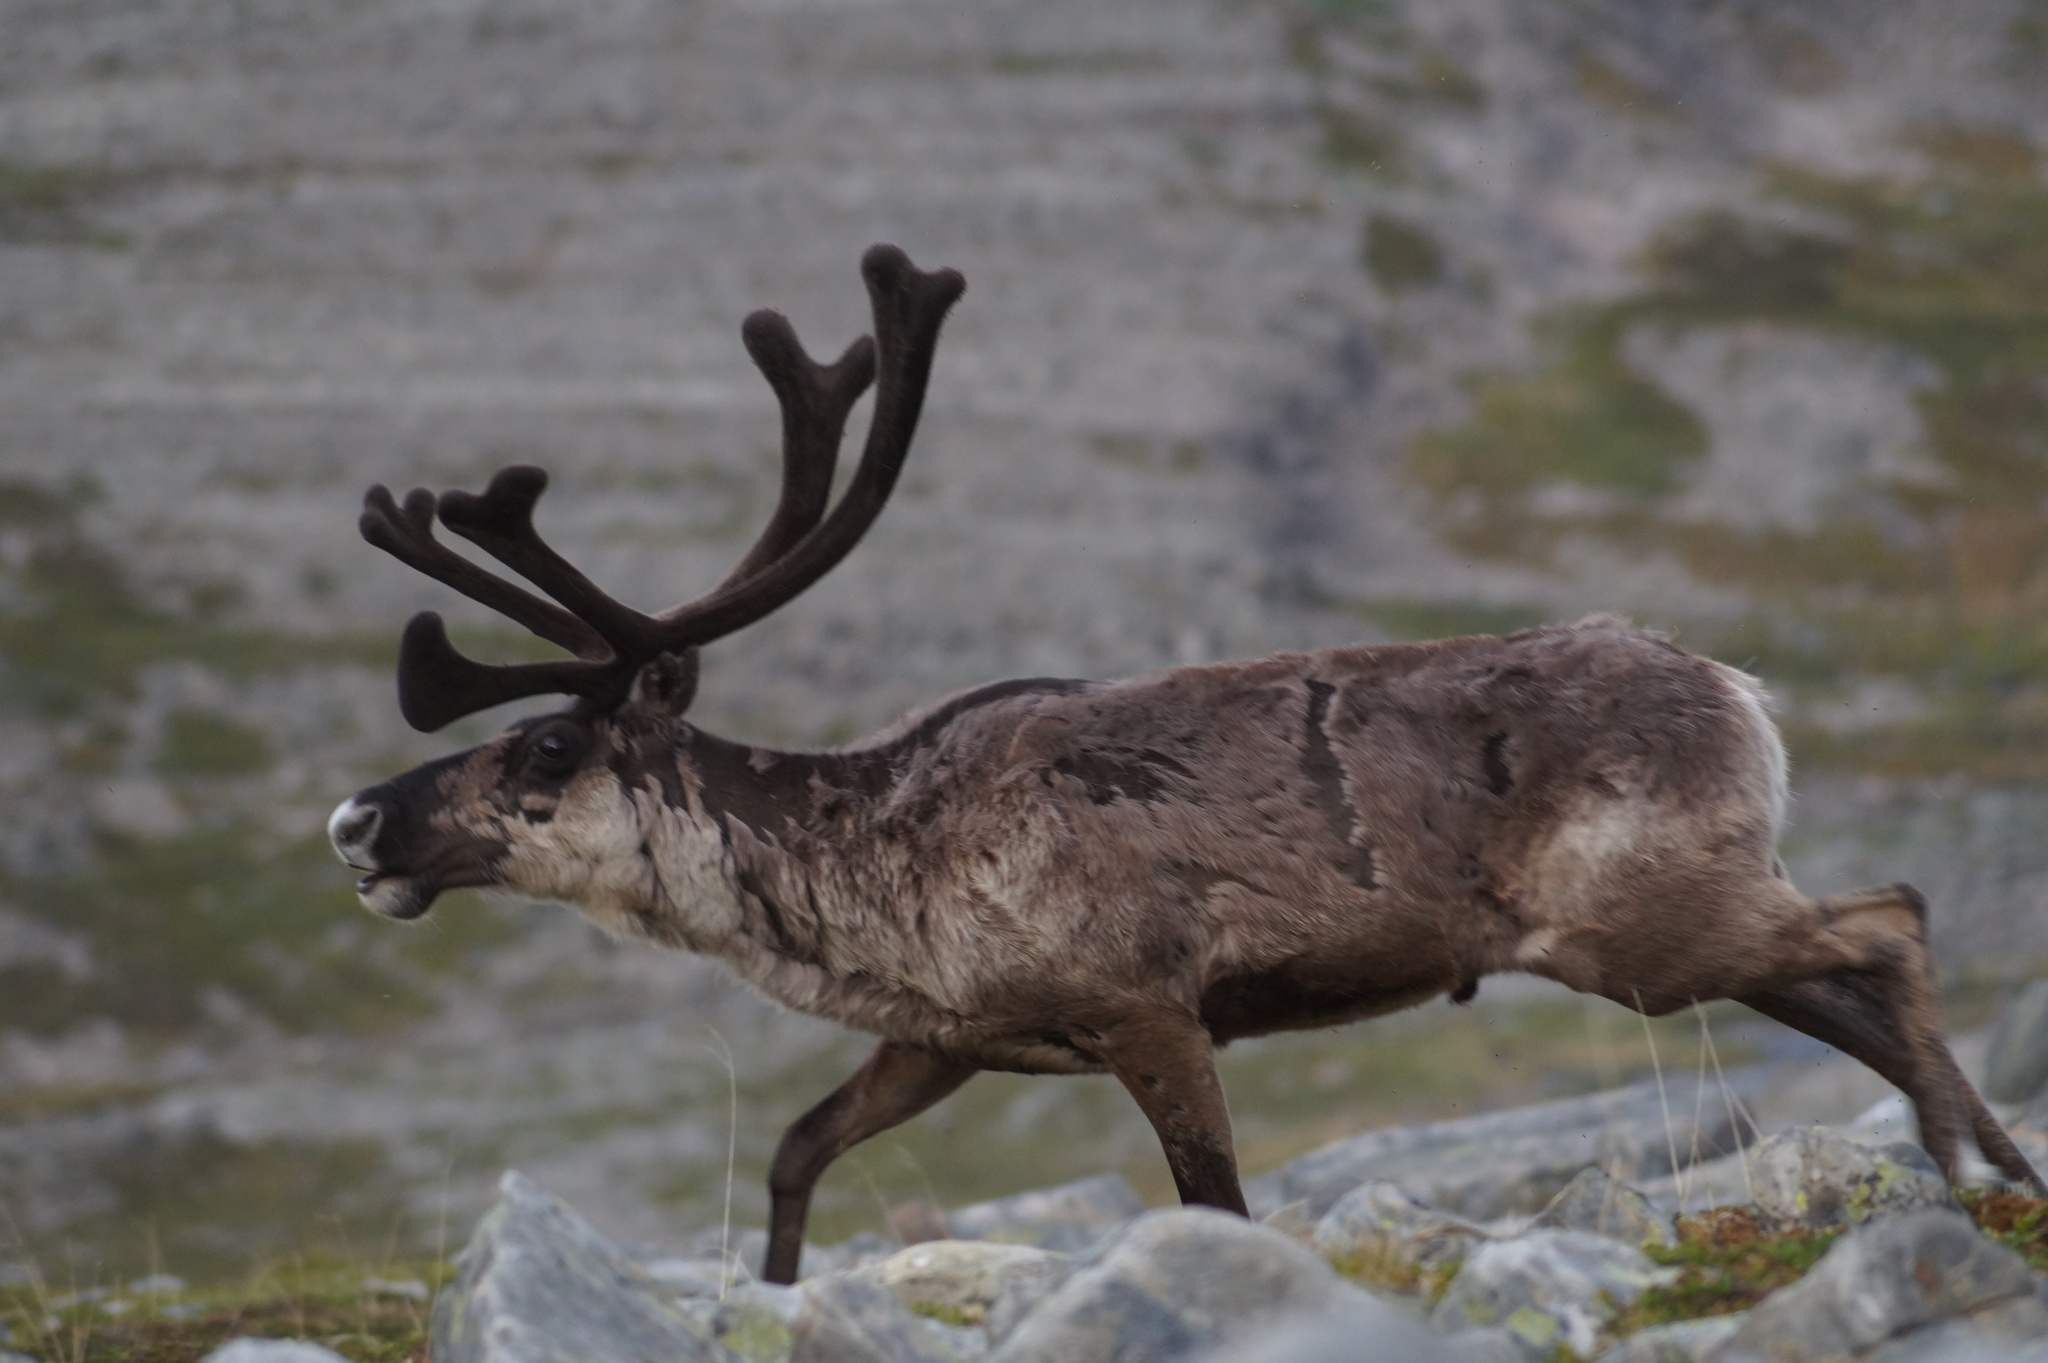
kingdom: Animalia
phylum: Chordata
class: Mammalia
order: Artiodactyla
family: Cervidae
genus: Rangifer
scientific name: Rangifer tarandus
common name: Reindeer
